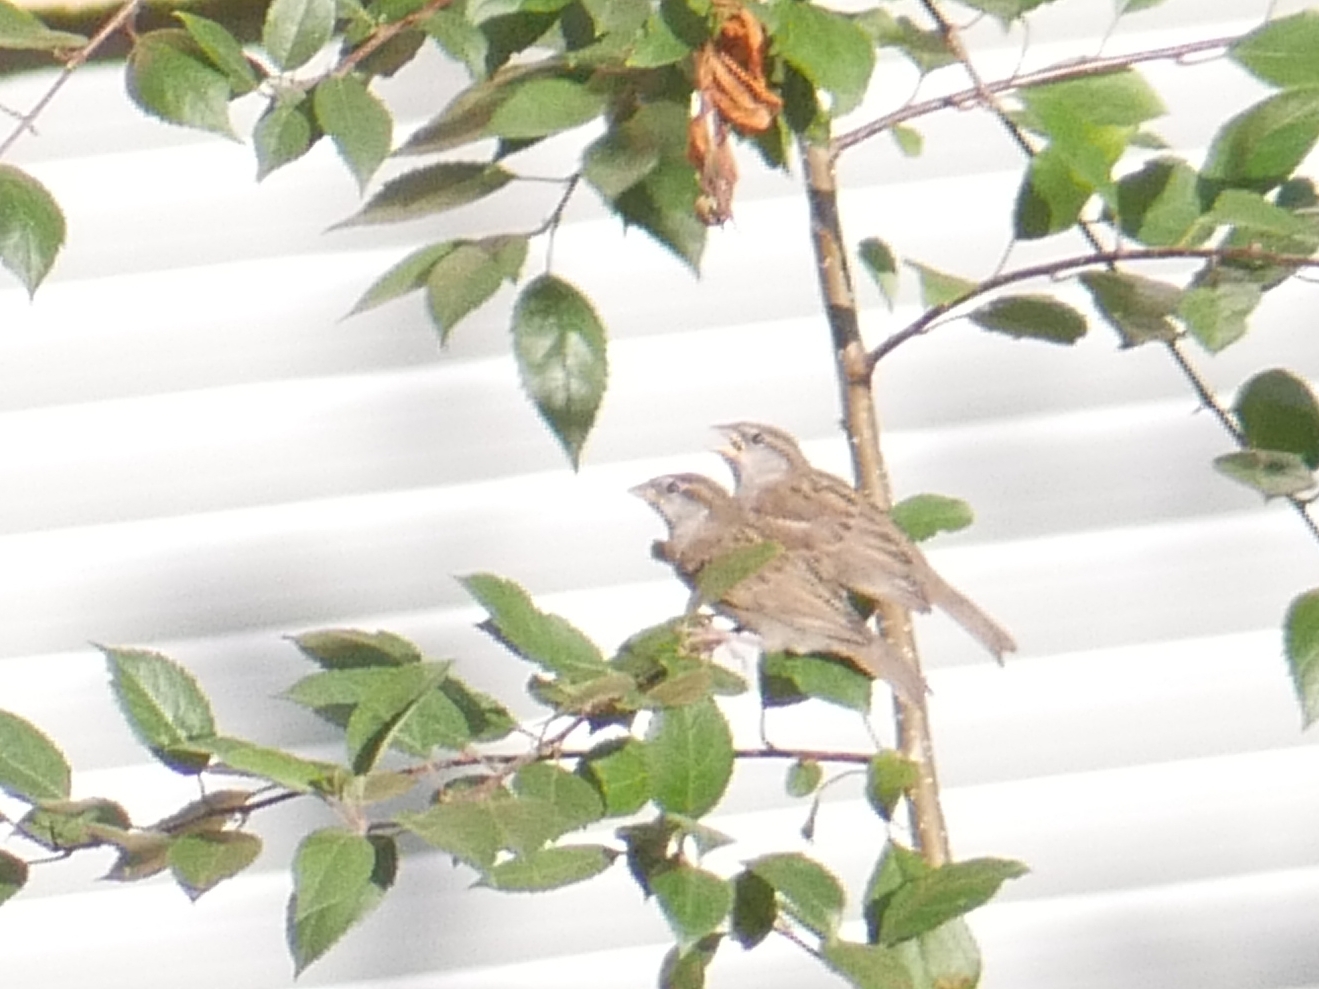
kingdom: Animalia
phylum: Chordata
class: Aves
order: Passeriformes
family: Passeridae
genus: Passer
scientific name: Passer domesticus
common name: House sparrow
